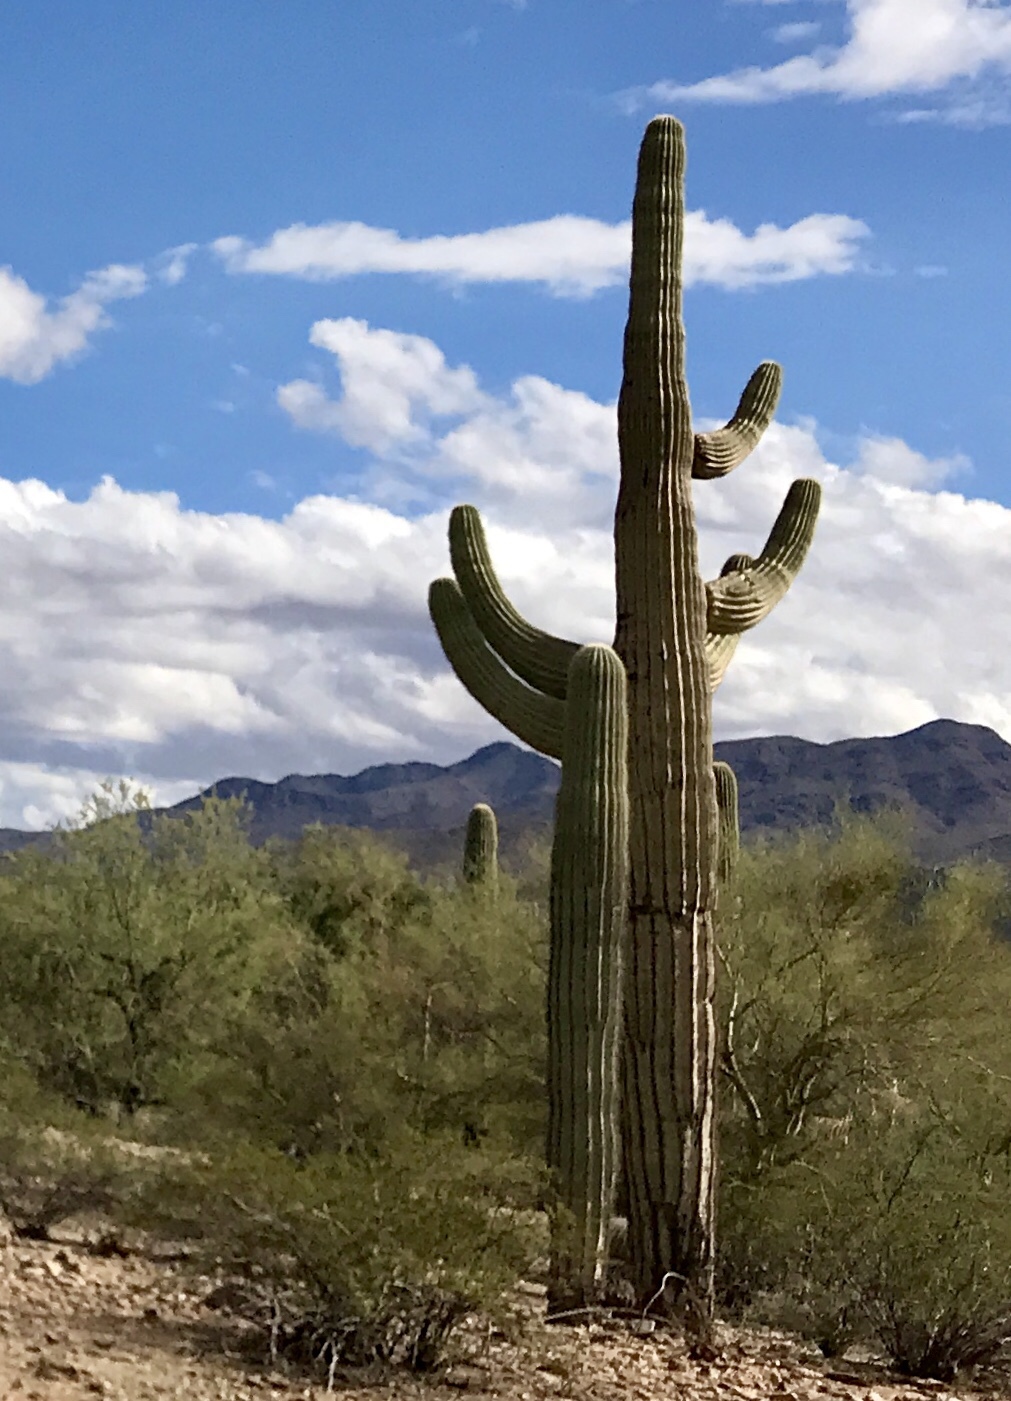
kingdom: Plantae
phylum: Tracheophyta
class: Magnoliopsida
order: Caryophyllales
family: Cactaceae
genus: Carnegiea
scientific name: Carnegiea gigantea
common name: Saguaro
